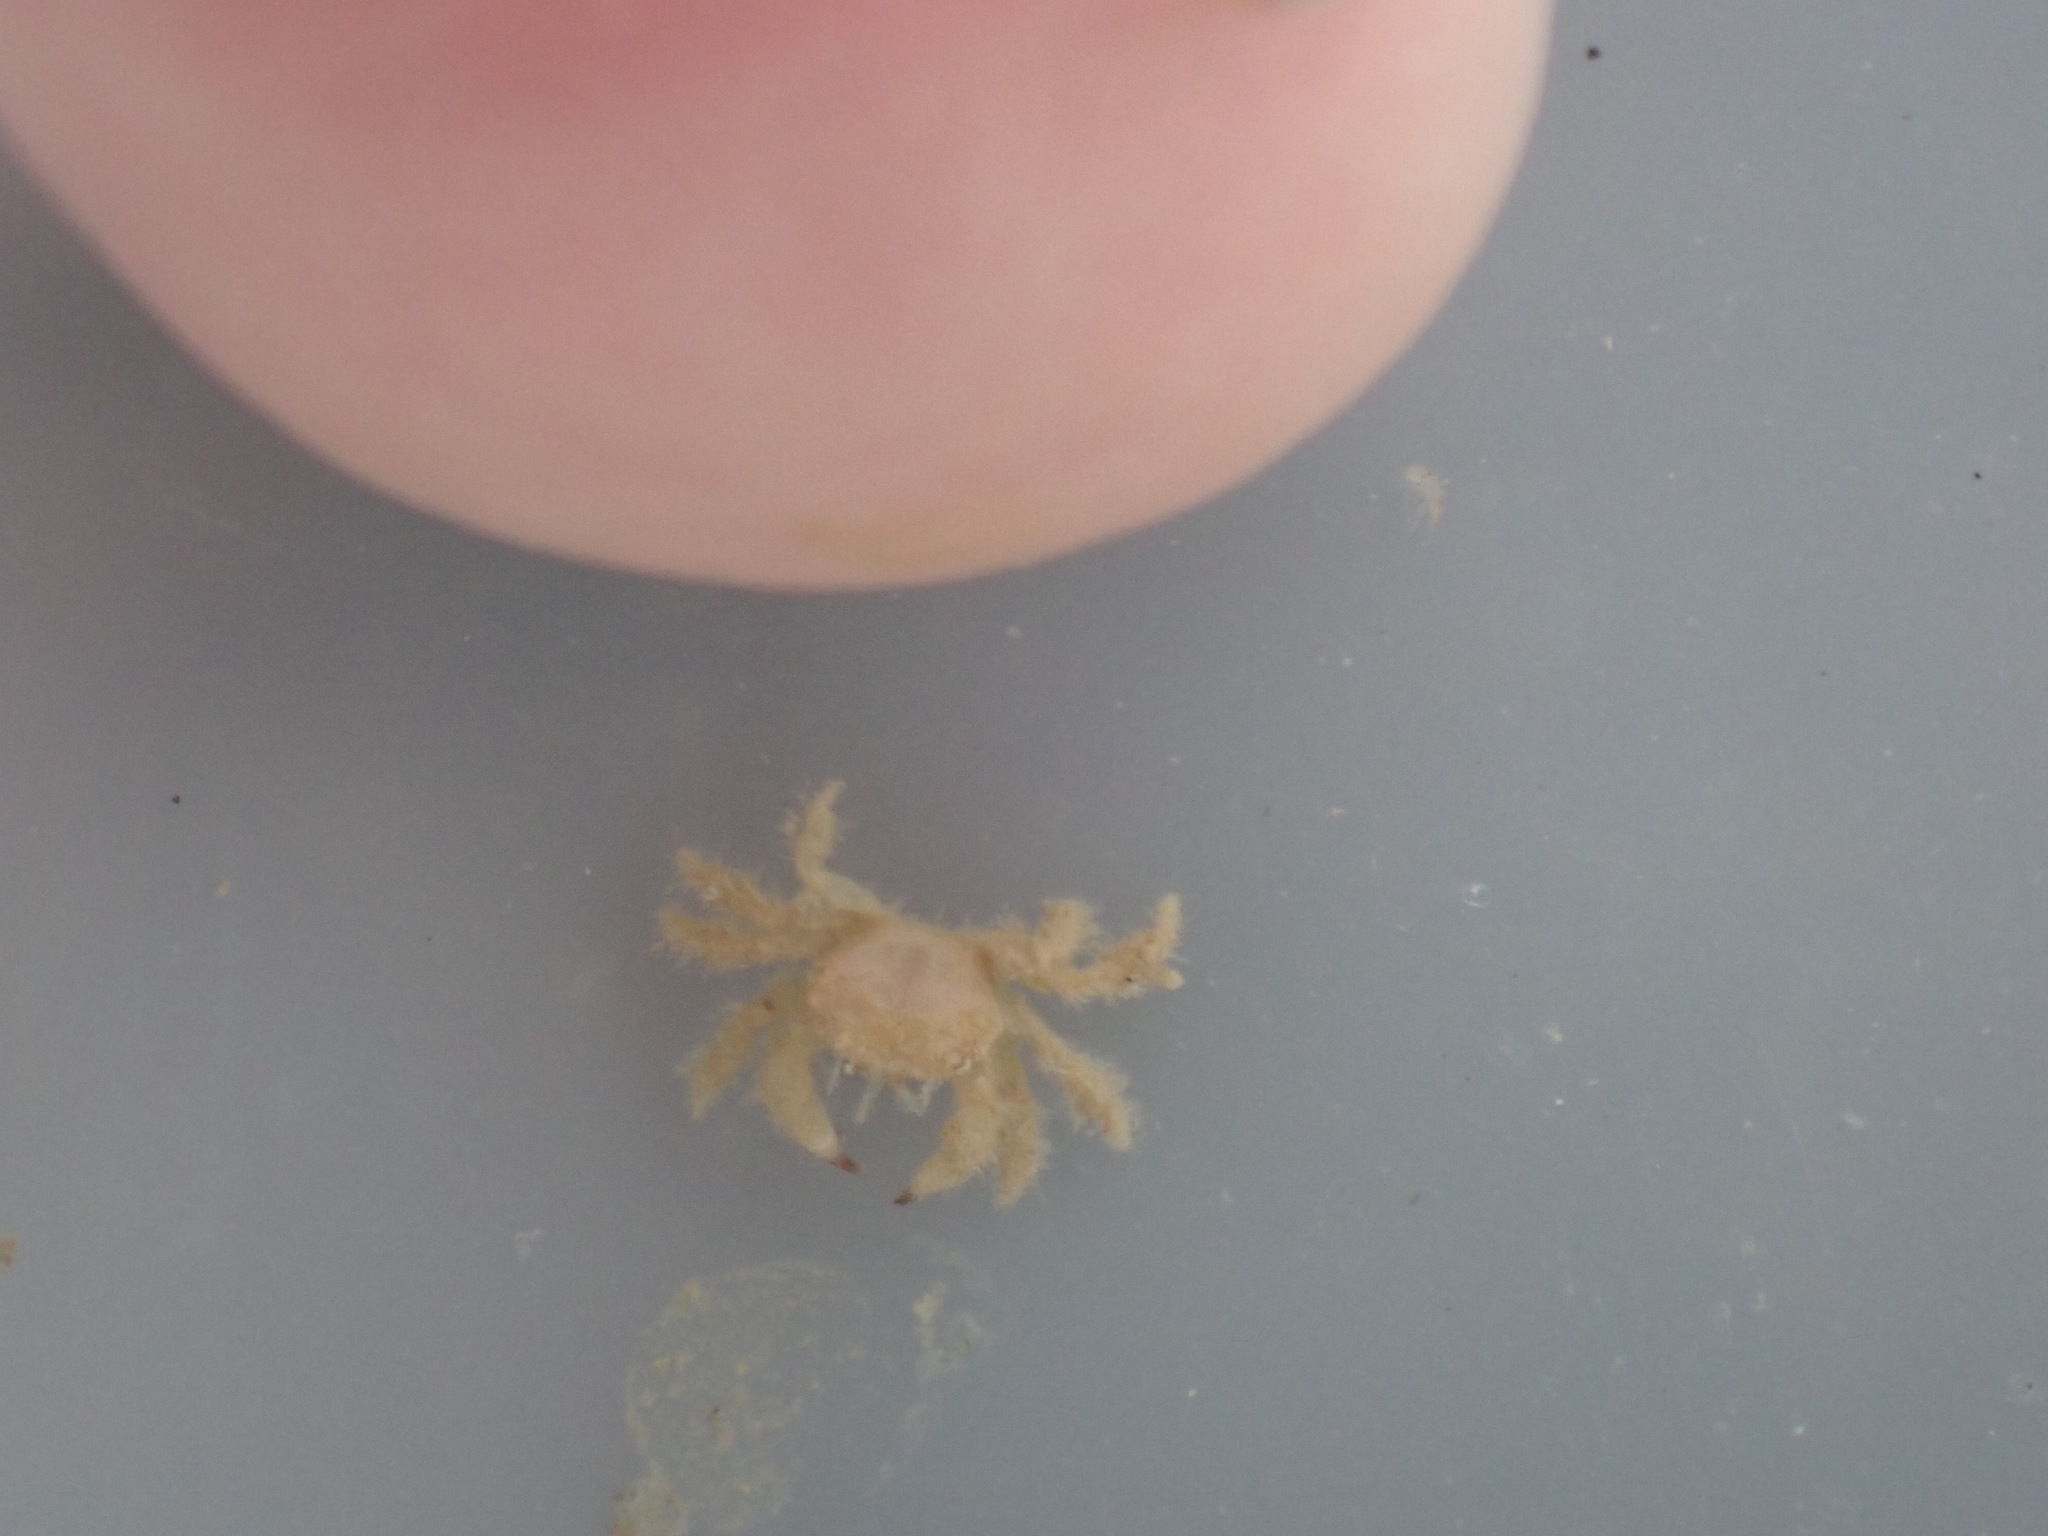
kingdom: Animalia
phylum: Arthropoda
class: Malacostraca
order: Decapoda
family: Pilumnidae
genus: Pilumnus
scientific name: Pilumnus lumpinus
